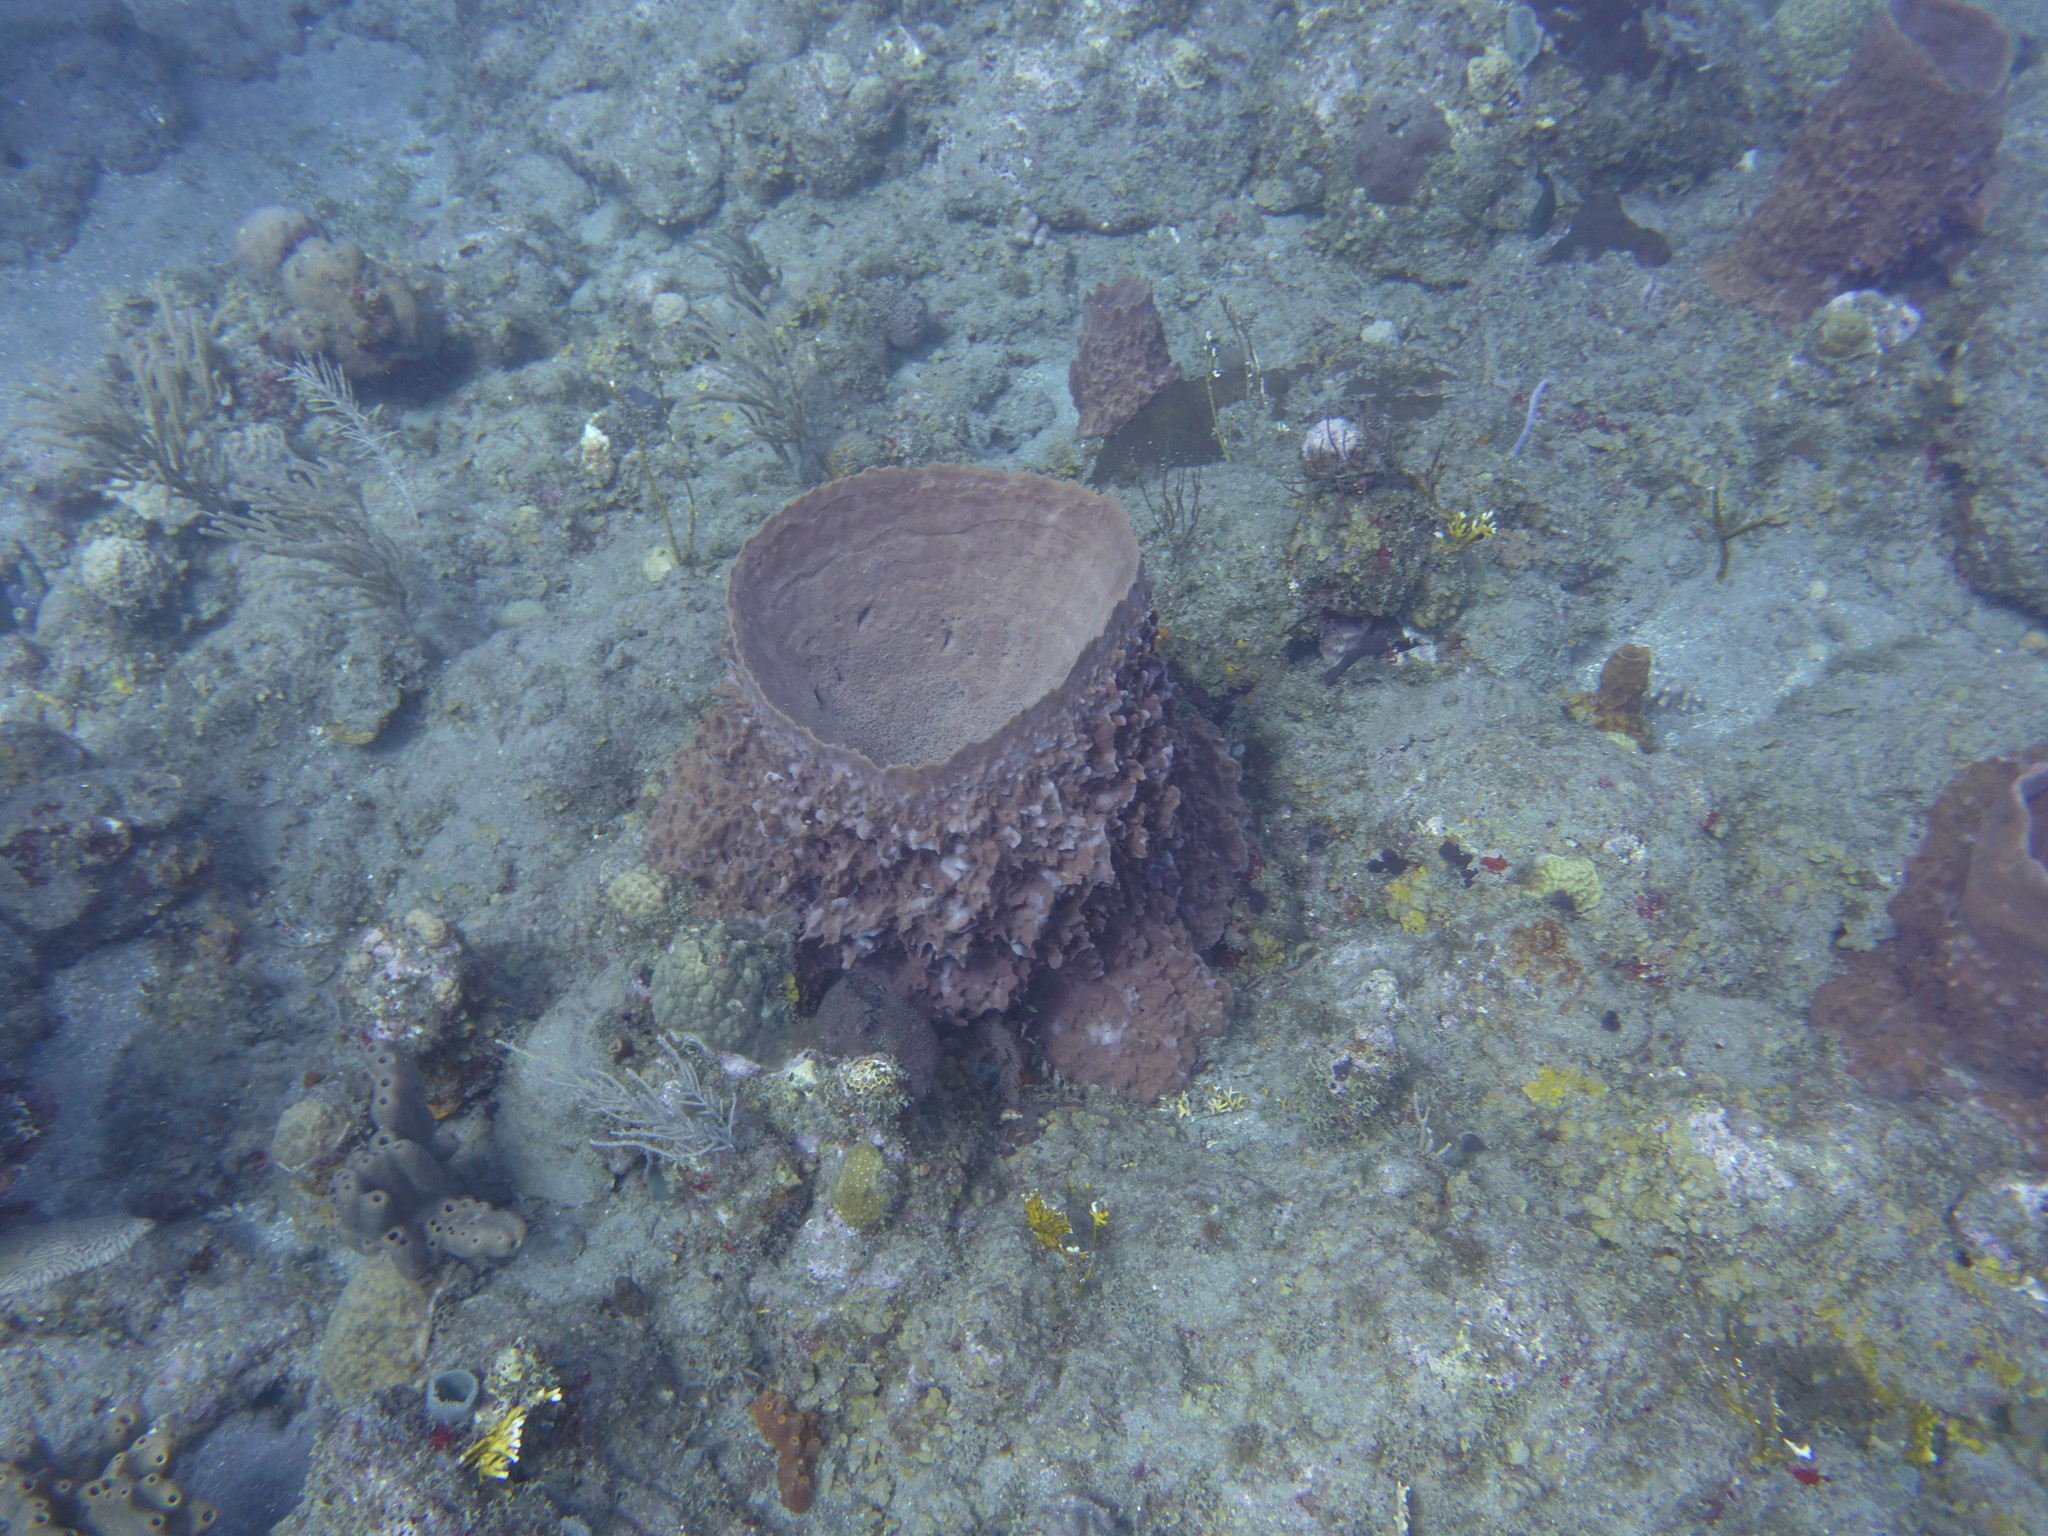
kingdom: Animalia
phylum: Porifera
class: Demospongiae
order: Haplosclerida
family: Petrosiidae
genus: Xestospongia
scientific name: Xestospongia muta
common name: Giant barrel sponge
